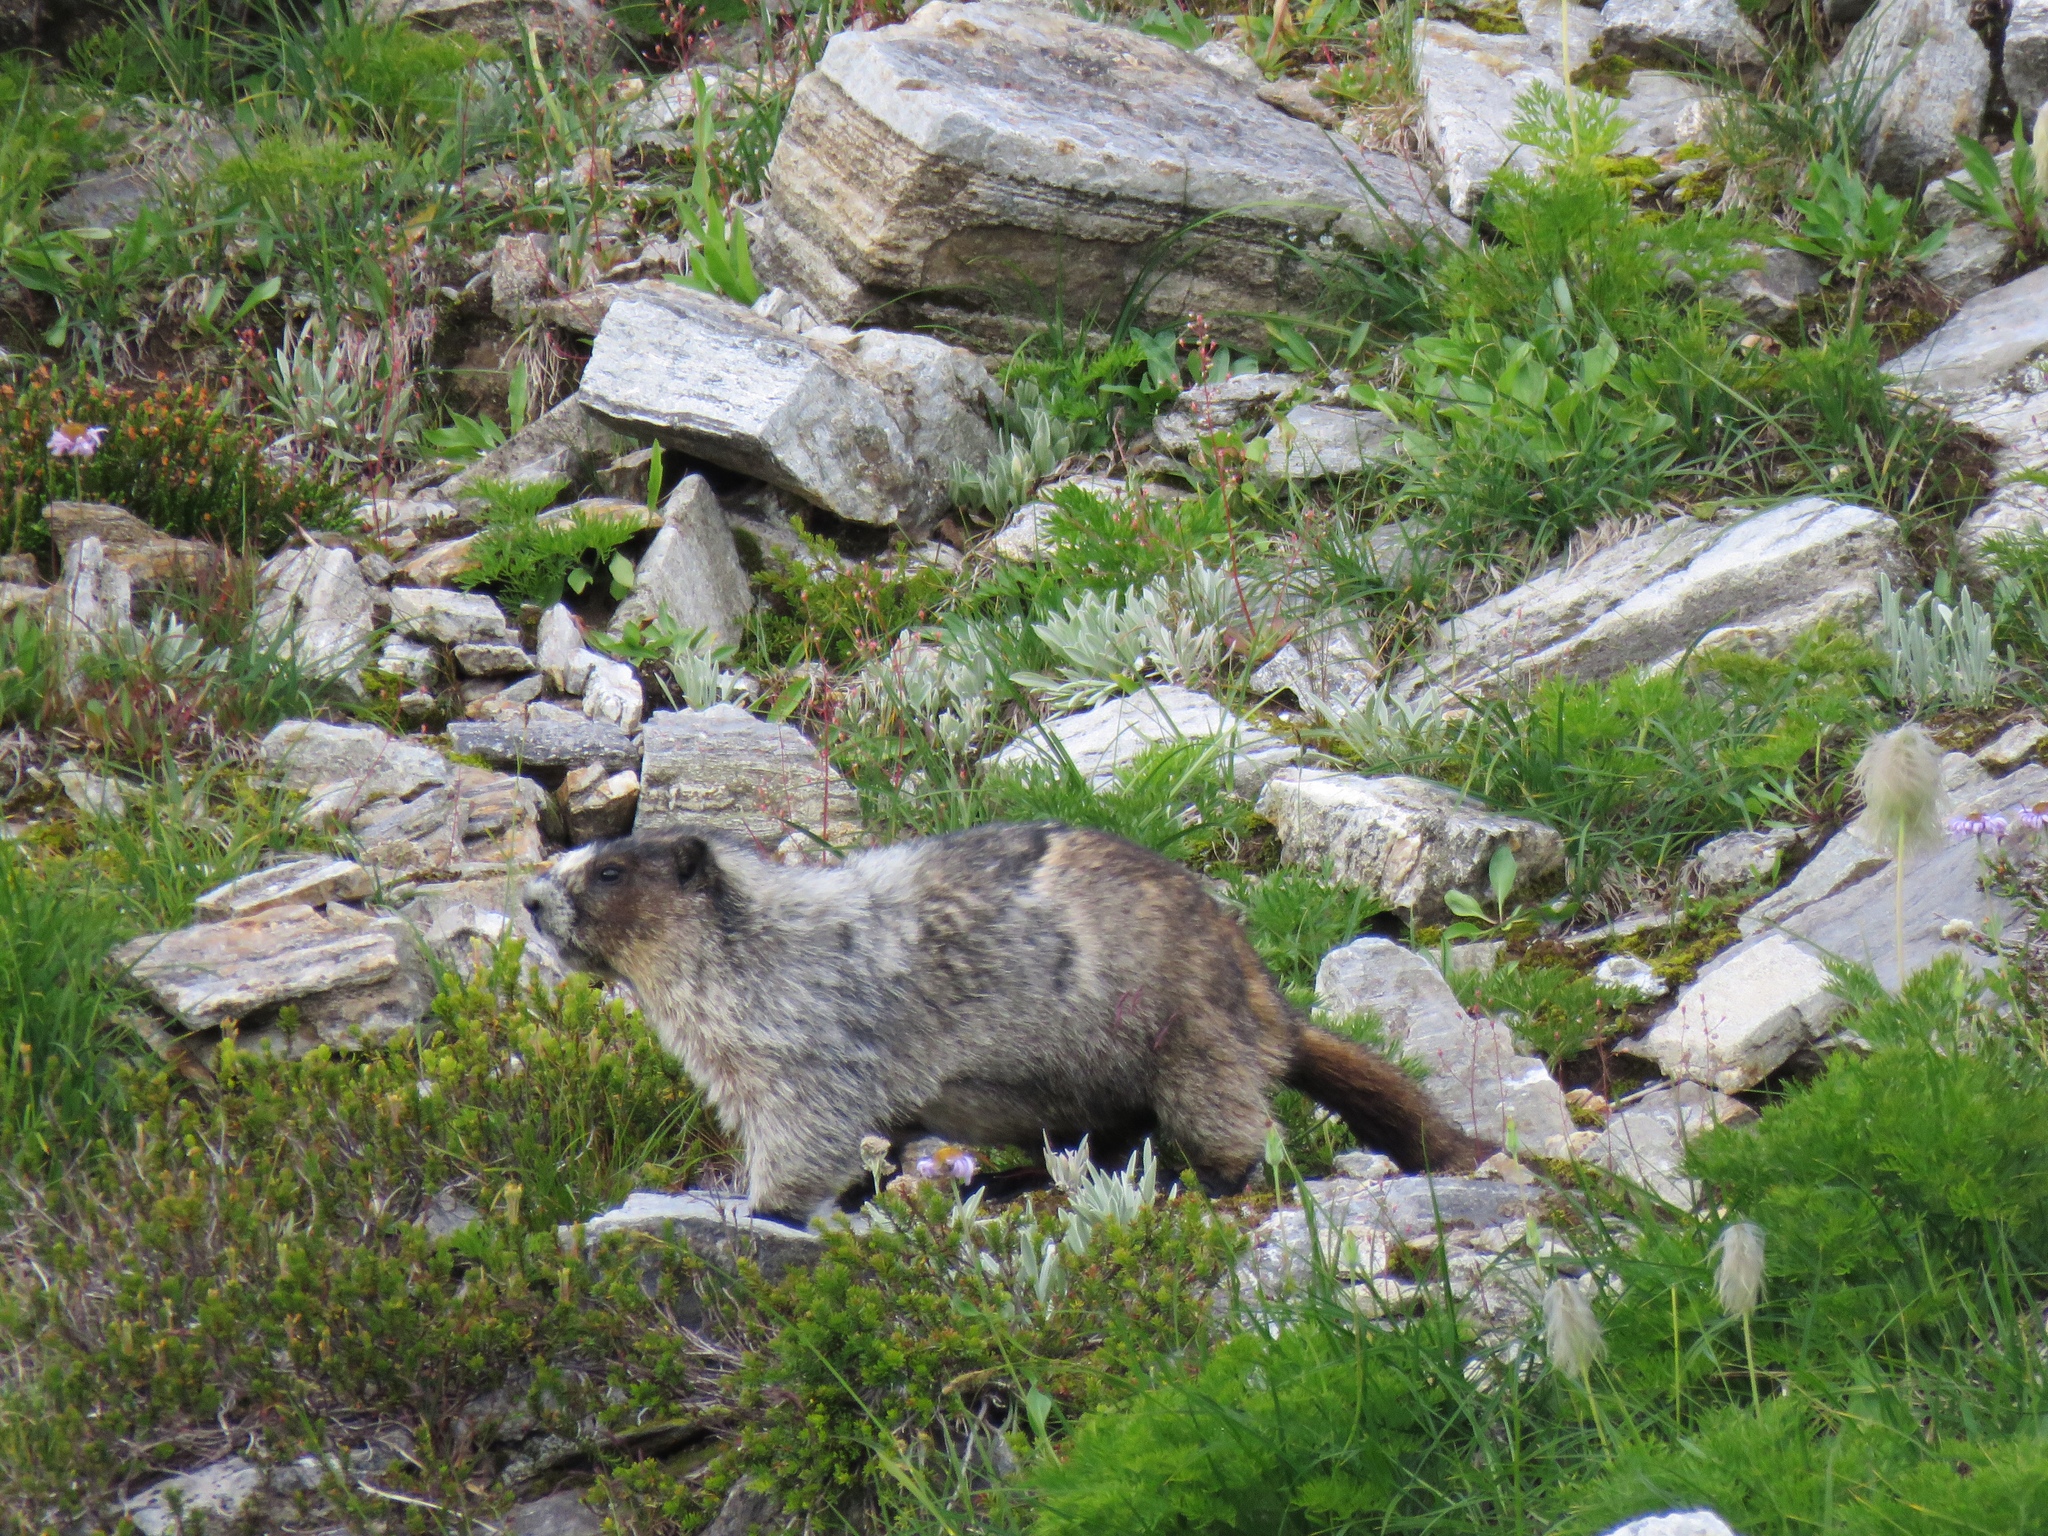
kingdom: Animalia
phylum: Chordata
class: Mammalia
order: Rodentia
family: Sciuridae
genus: Marmota
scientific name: Marmota caligata
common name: Hoary marmot
